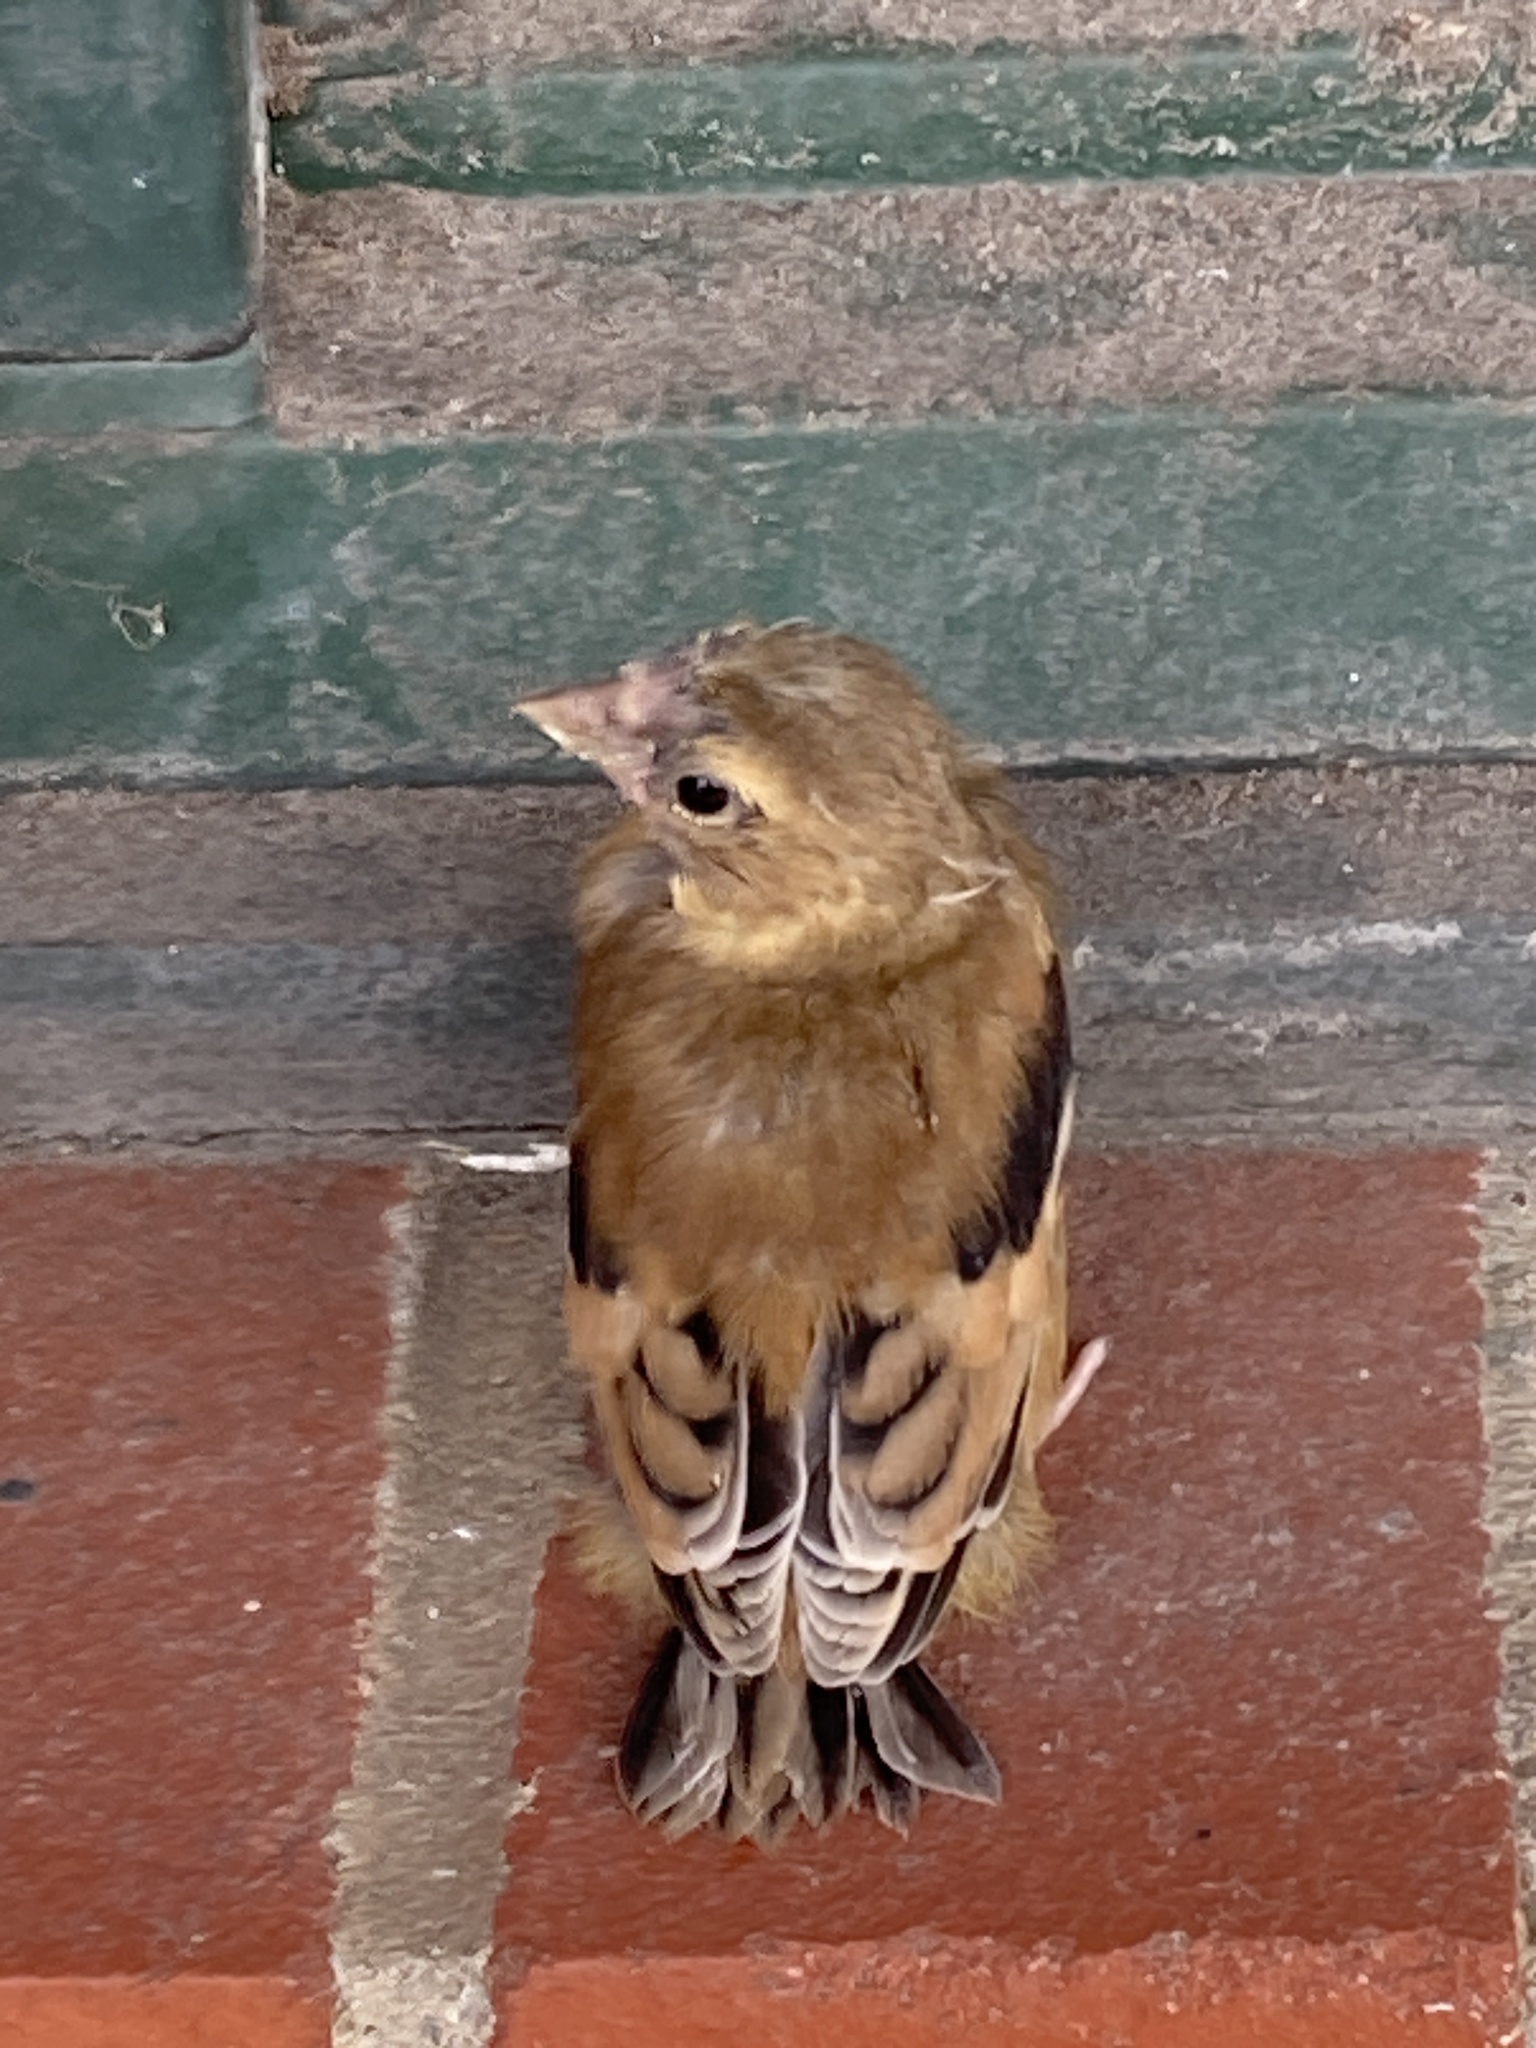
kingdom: Animalia
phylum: Chordata
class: Aves
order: Passeriformes
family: Fringillidae
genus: Spinus
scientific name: Spinus tristis
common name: American goldfinch
